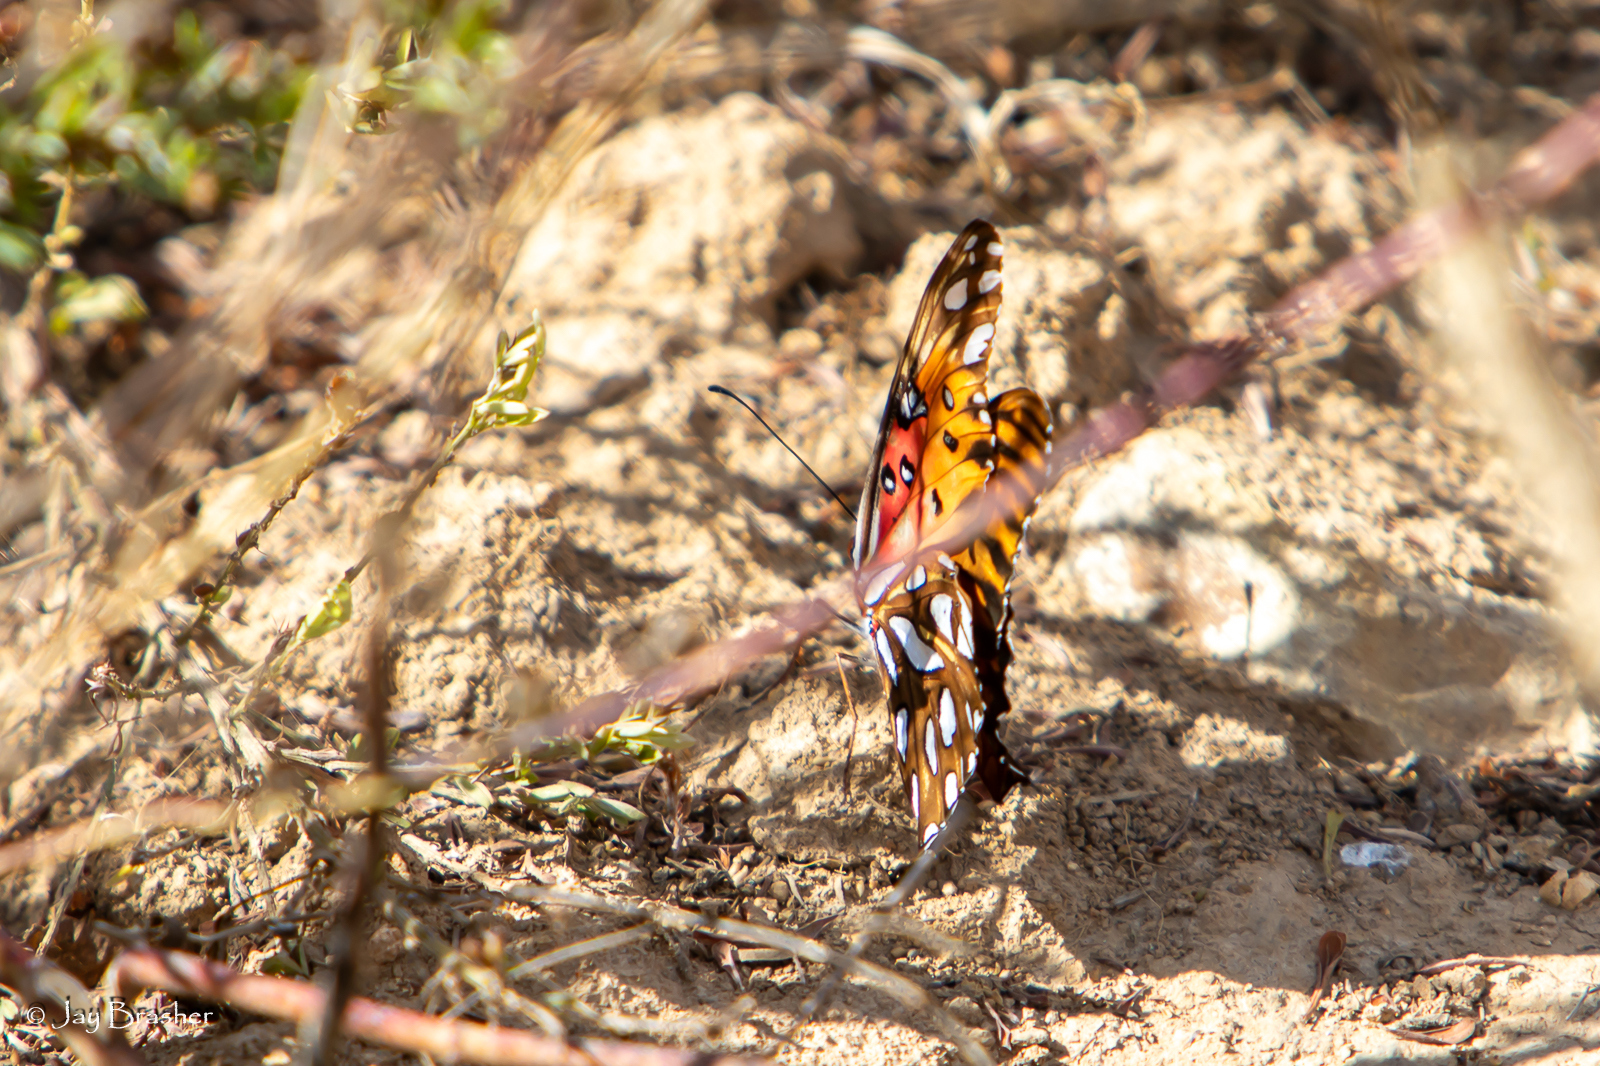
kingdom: Animalia
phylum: Arthropoda
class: Insecta
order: Lepidoptera
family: Nymphalidae
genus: Dione
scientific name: Dione vanillae
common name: Gulf fritillary
